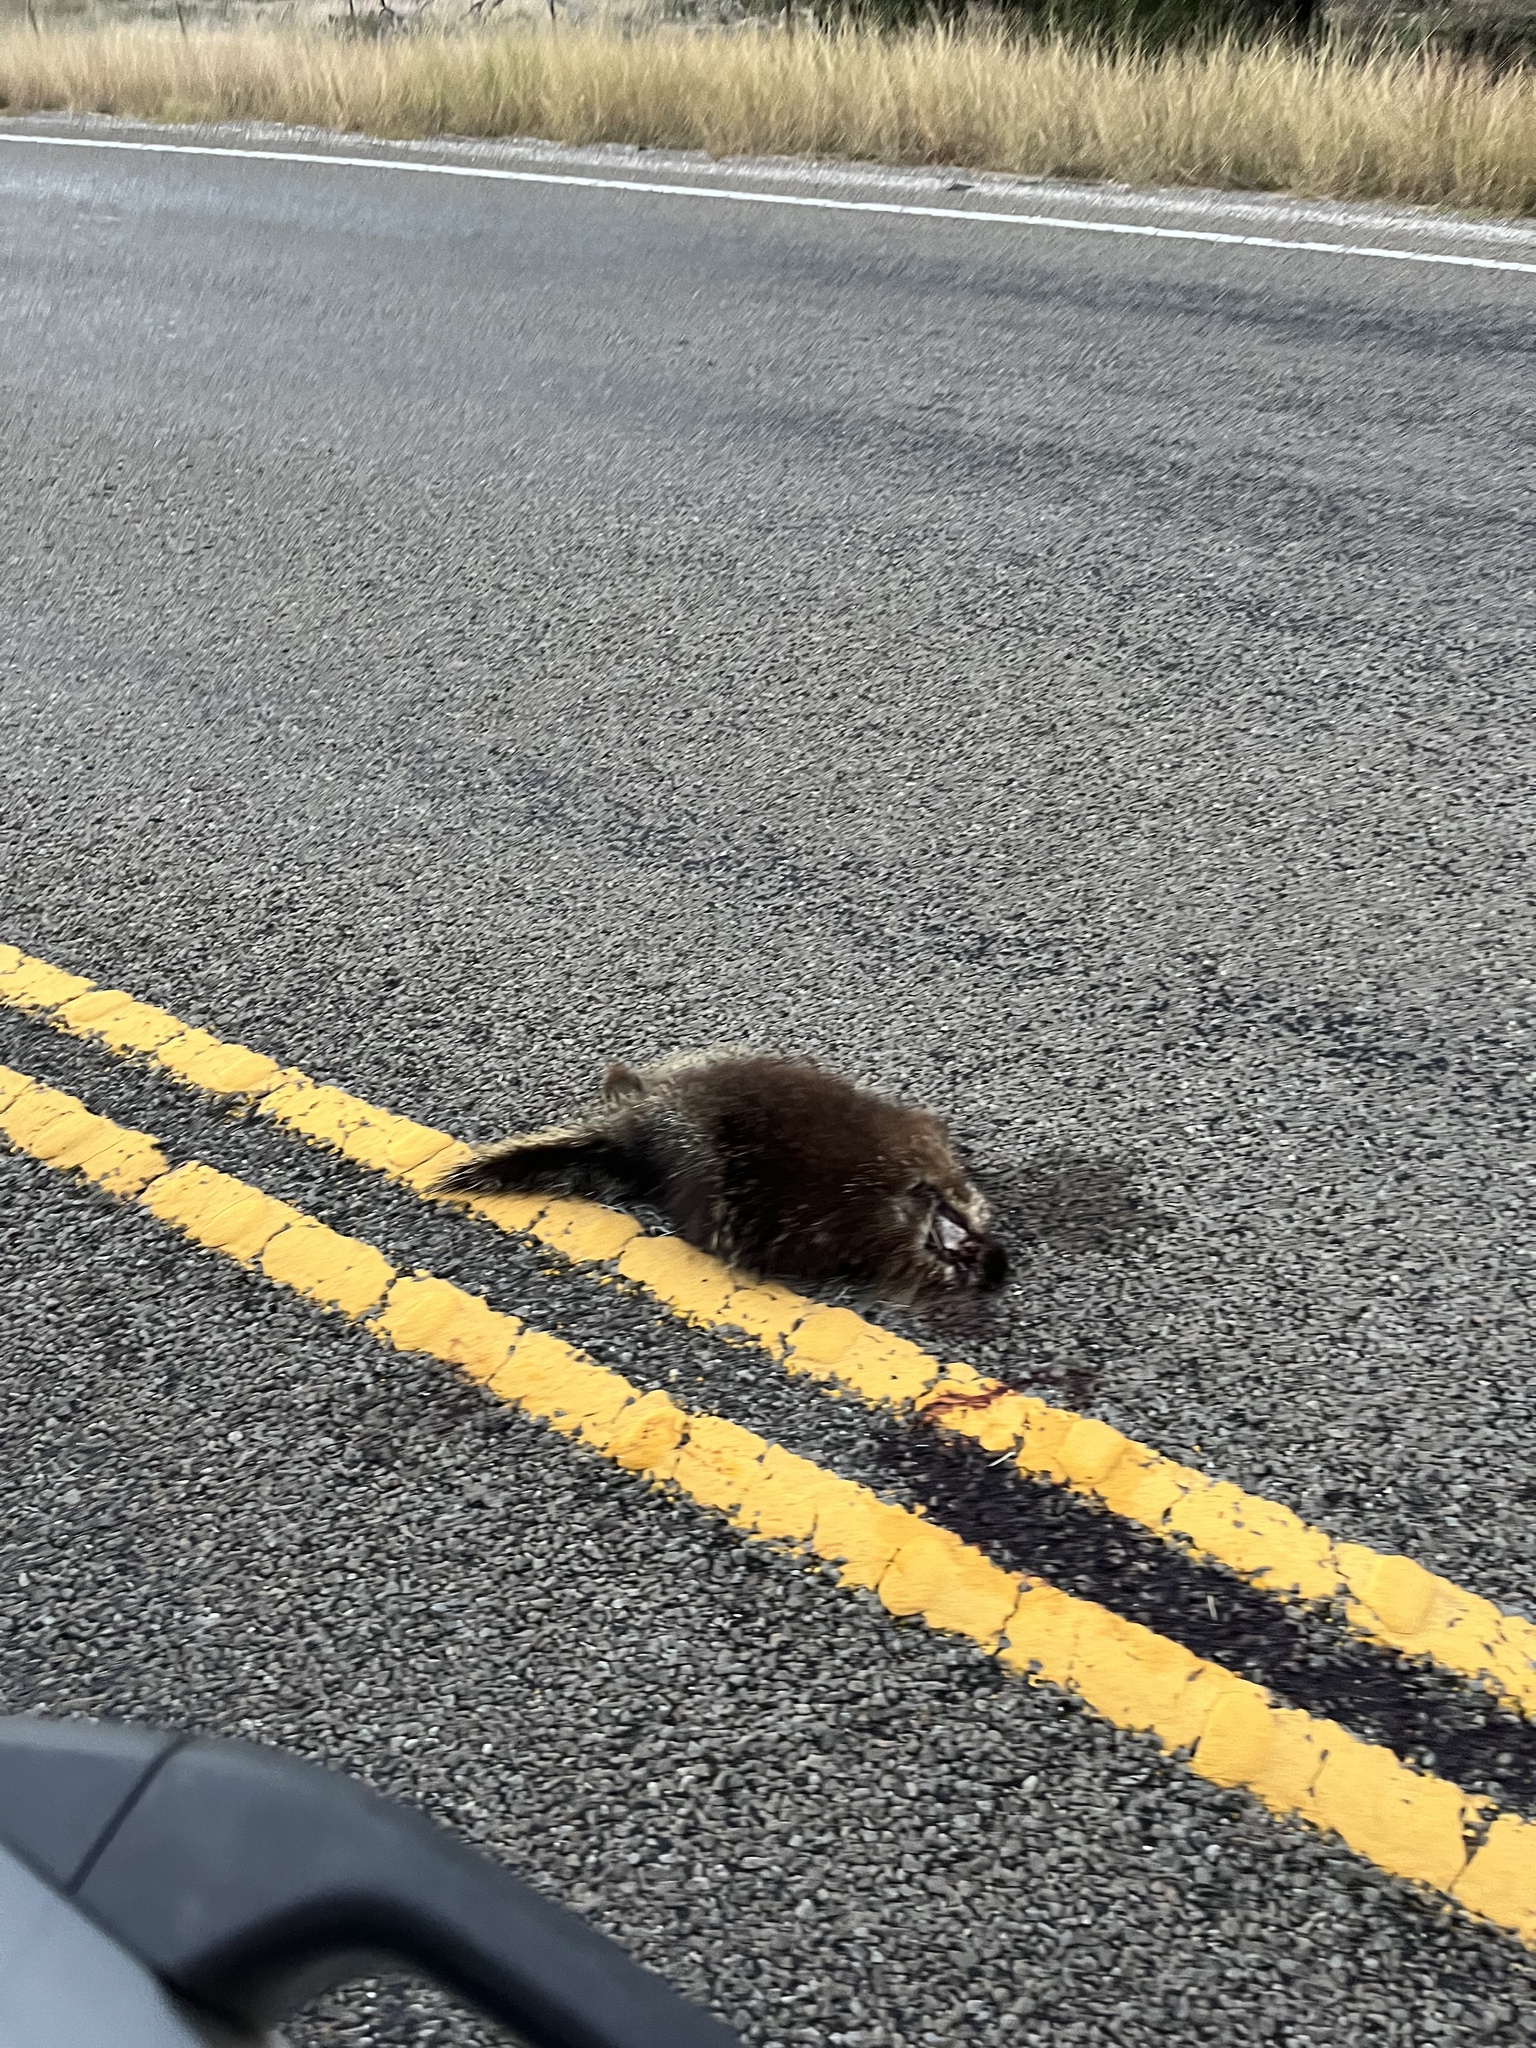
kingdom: Animalia
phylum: Chordata
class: Mammalia
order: Rodentia
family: Erethizontidae
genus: Erethizon
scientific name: Erethizon dorsatus
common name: North american porcupine
